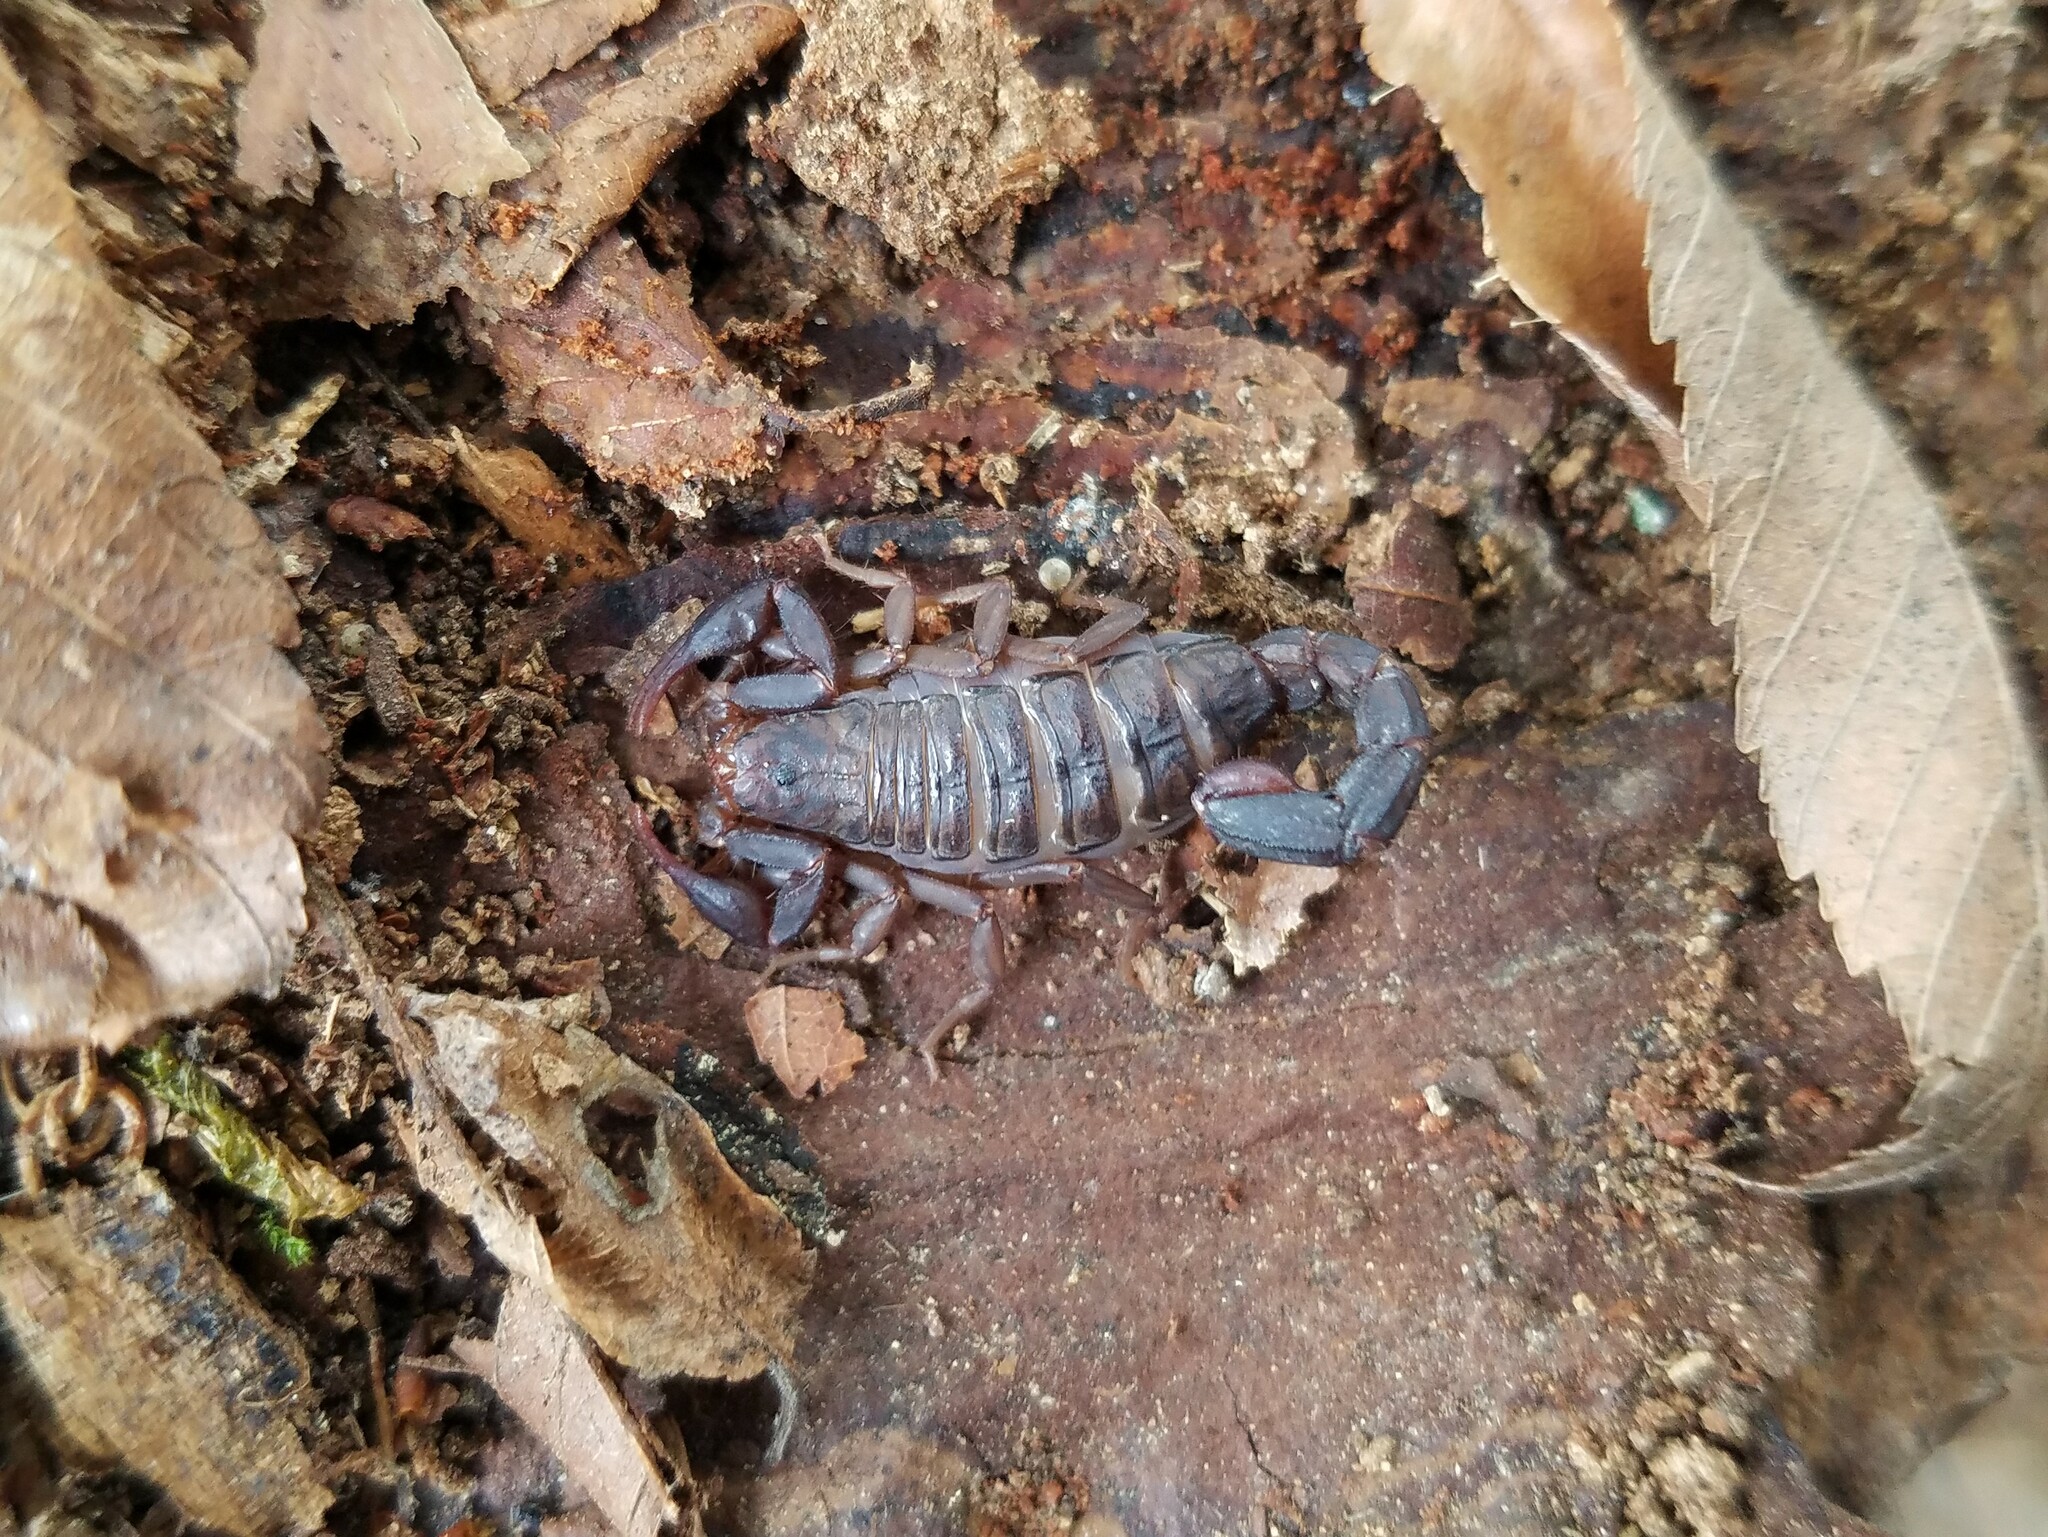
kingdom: Animalia
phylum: Arthropoda
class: Arachnida
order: Scorpiones
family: Vaejovidae
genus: Vaejovis
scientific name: Vaejovis carolinianus
